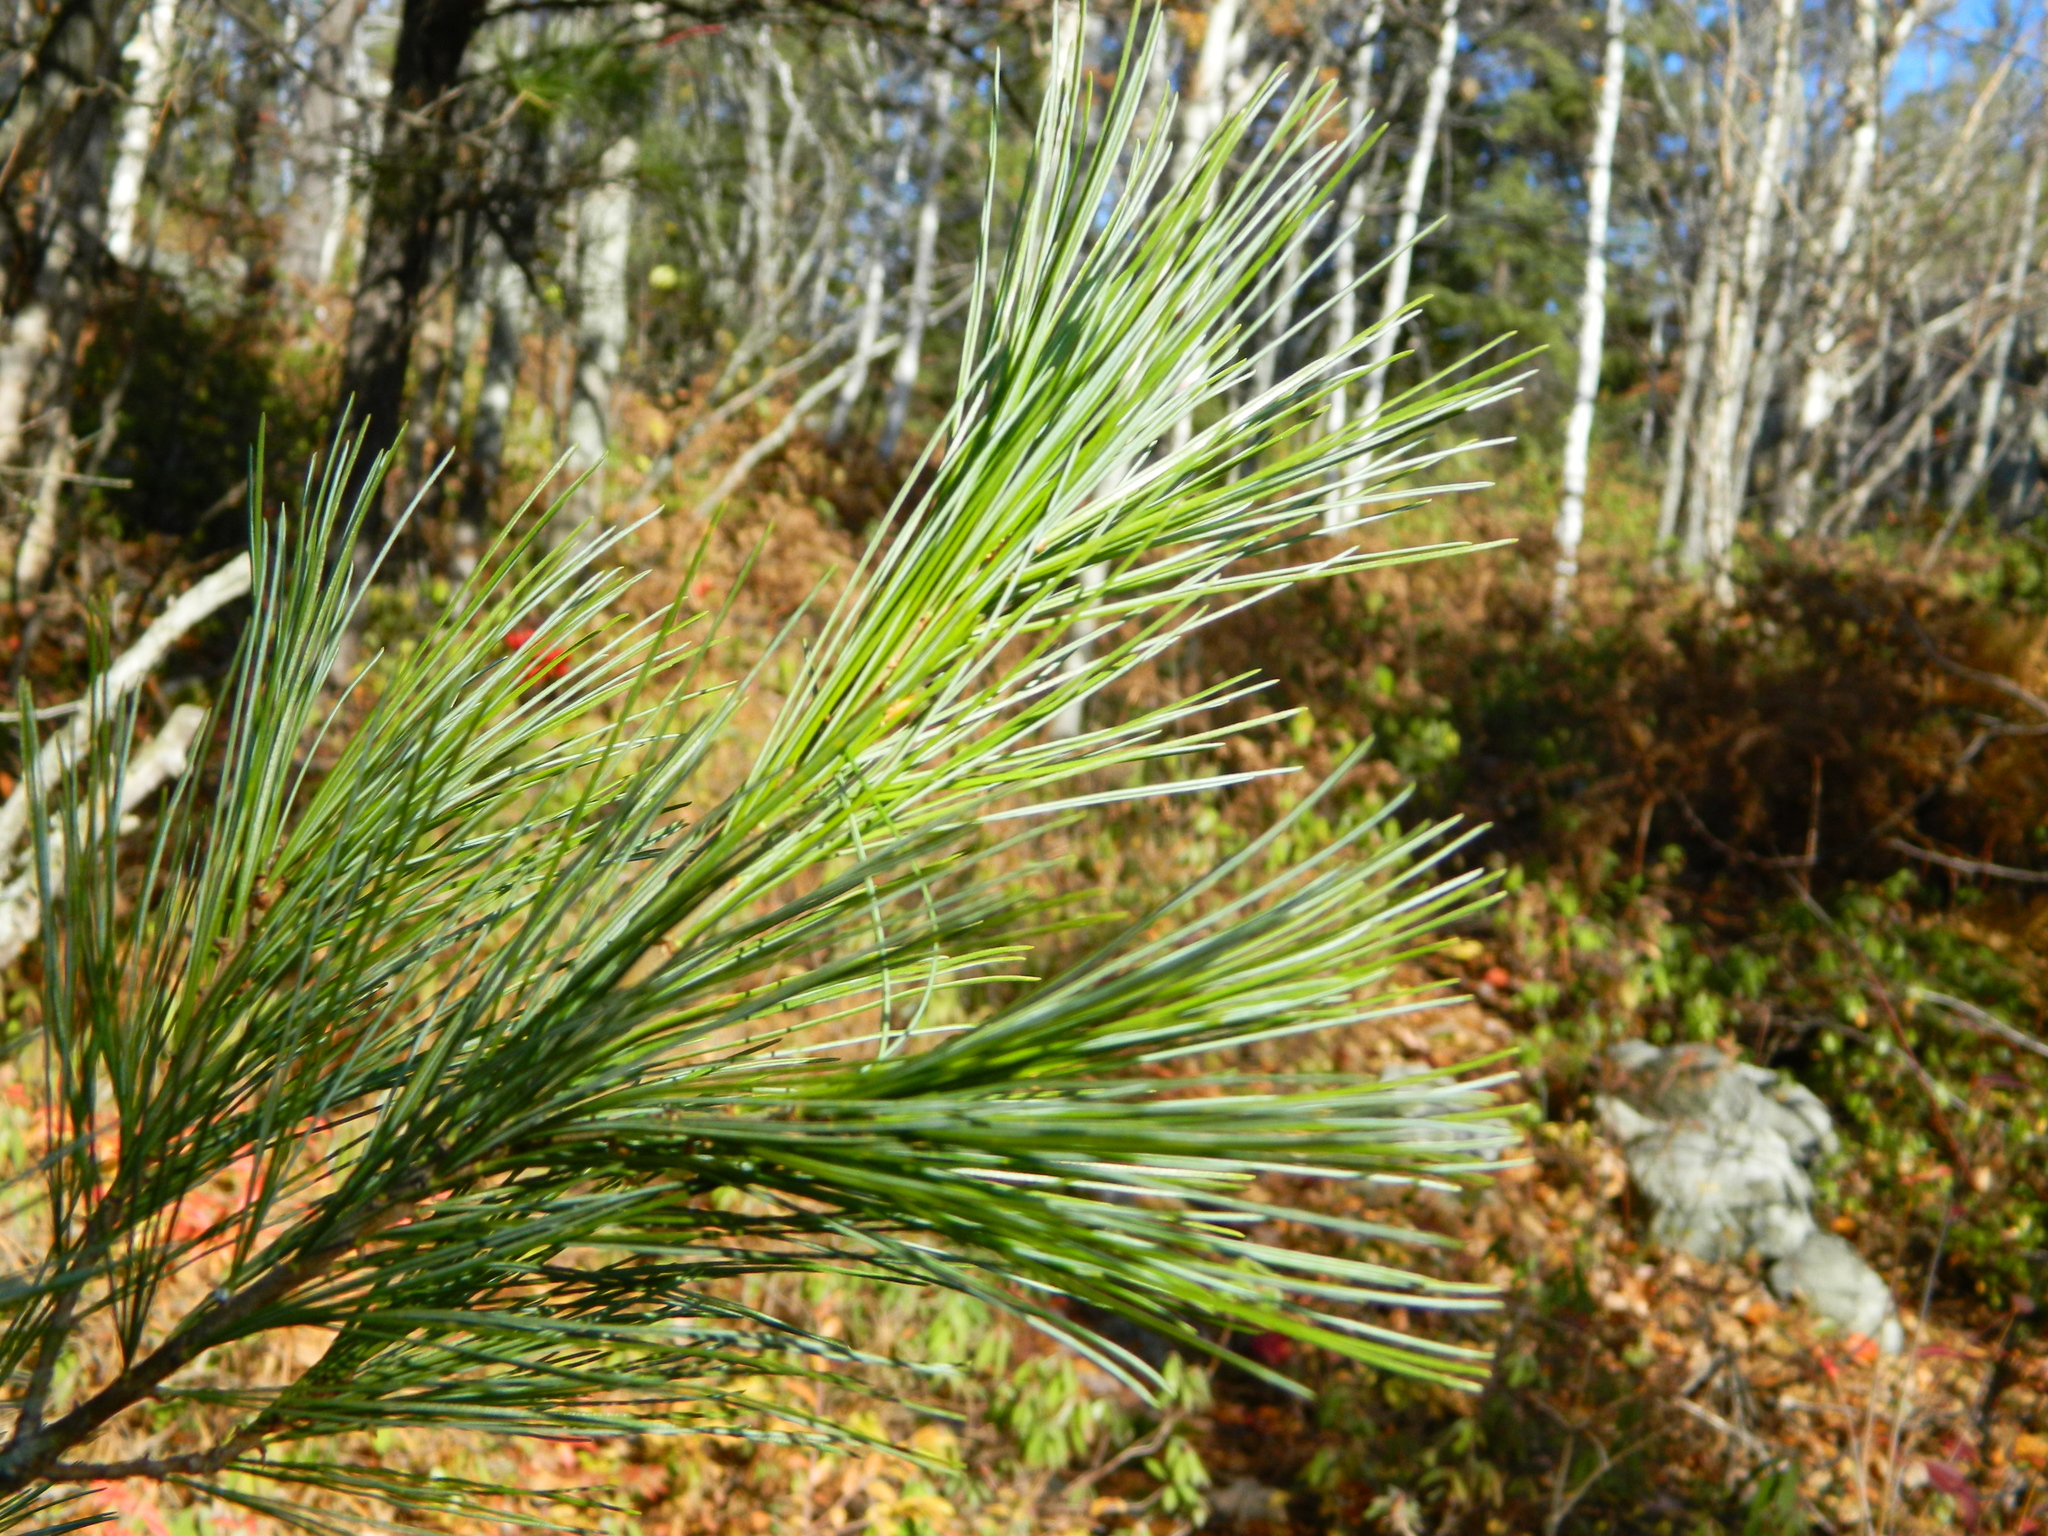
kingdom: Plantae
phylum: Tracheophyta
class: Pinopsida
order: Pinales
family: Pinaceae
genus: Pinus
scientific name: Pinus strobus
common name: Weymouth pine
